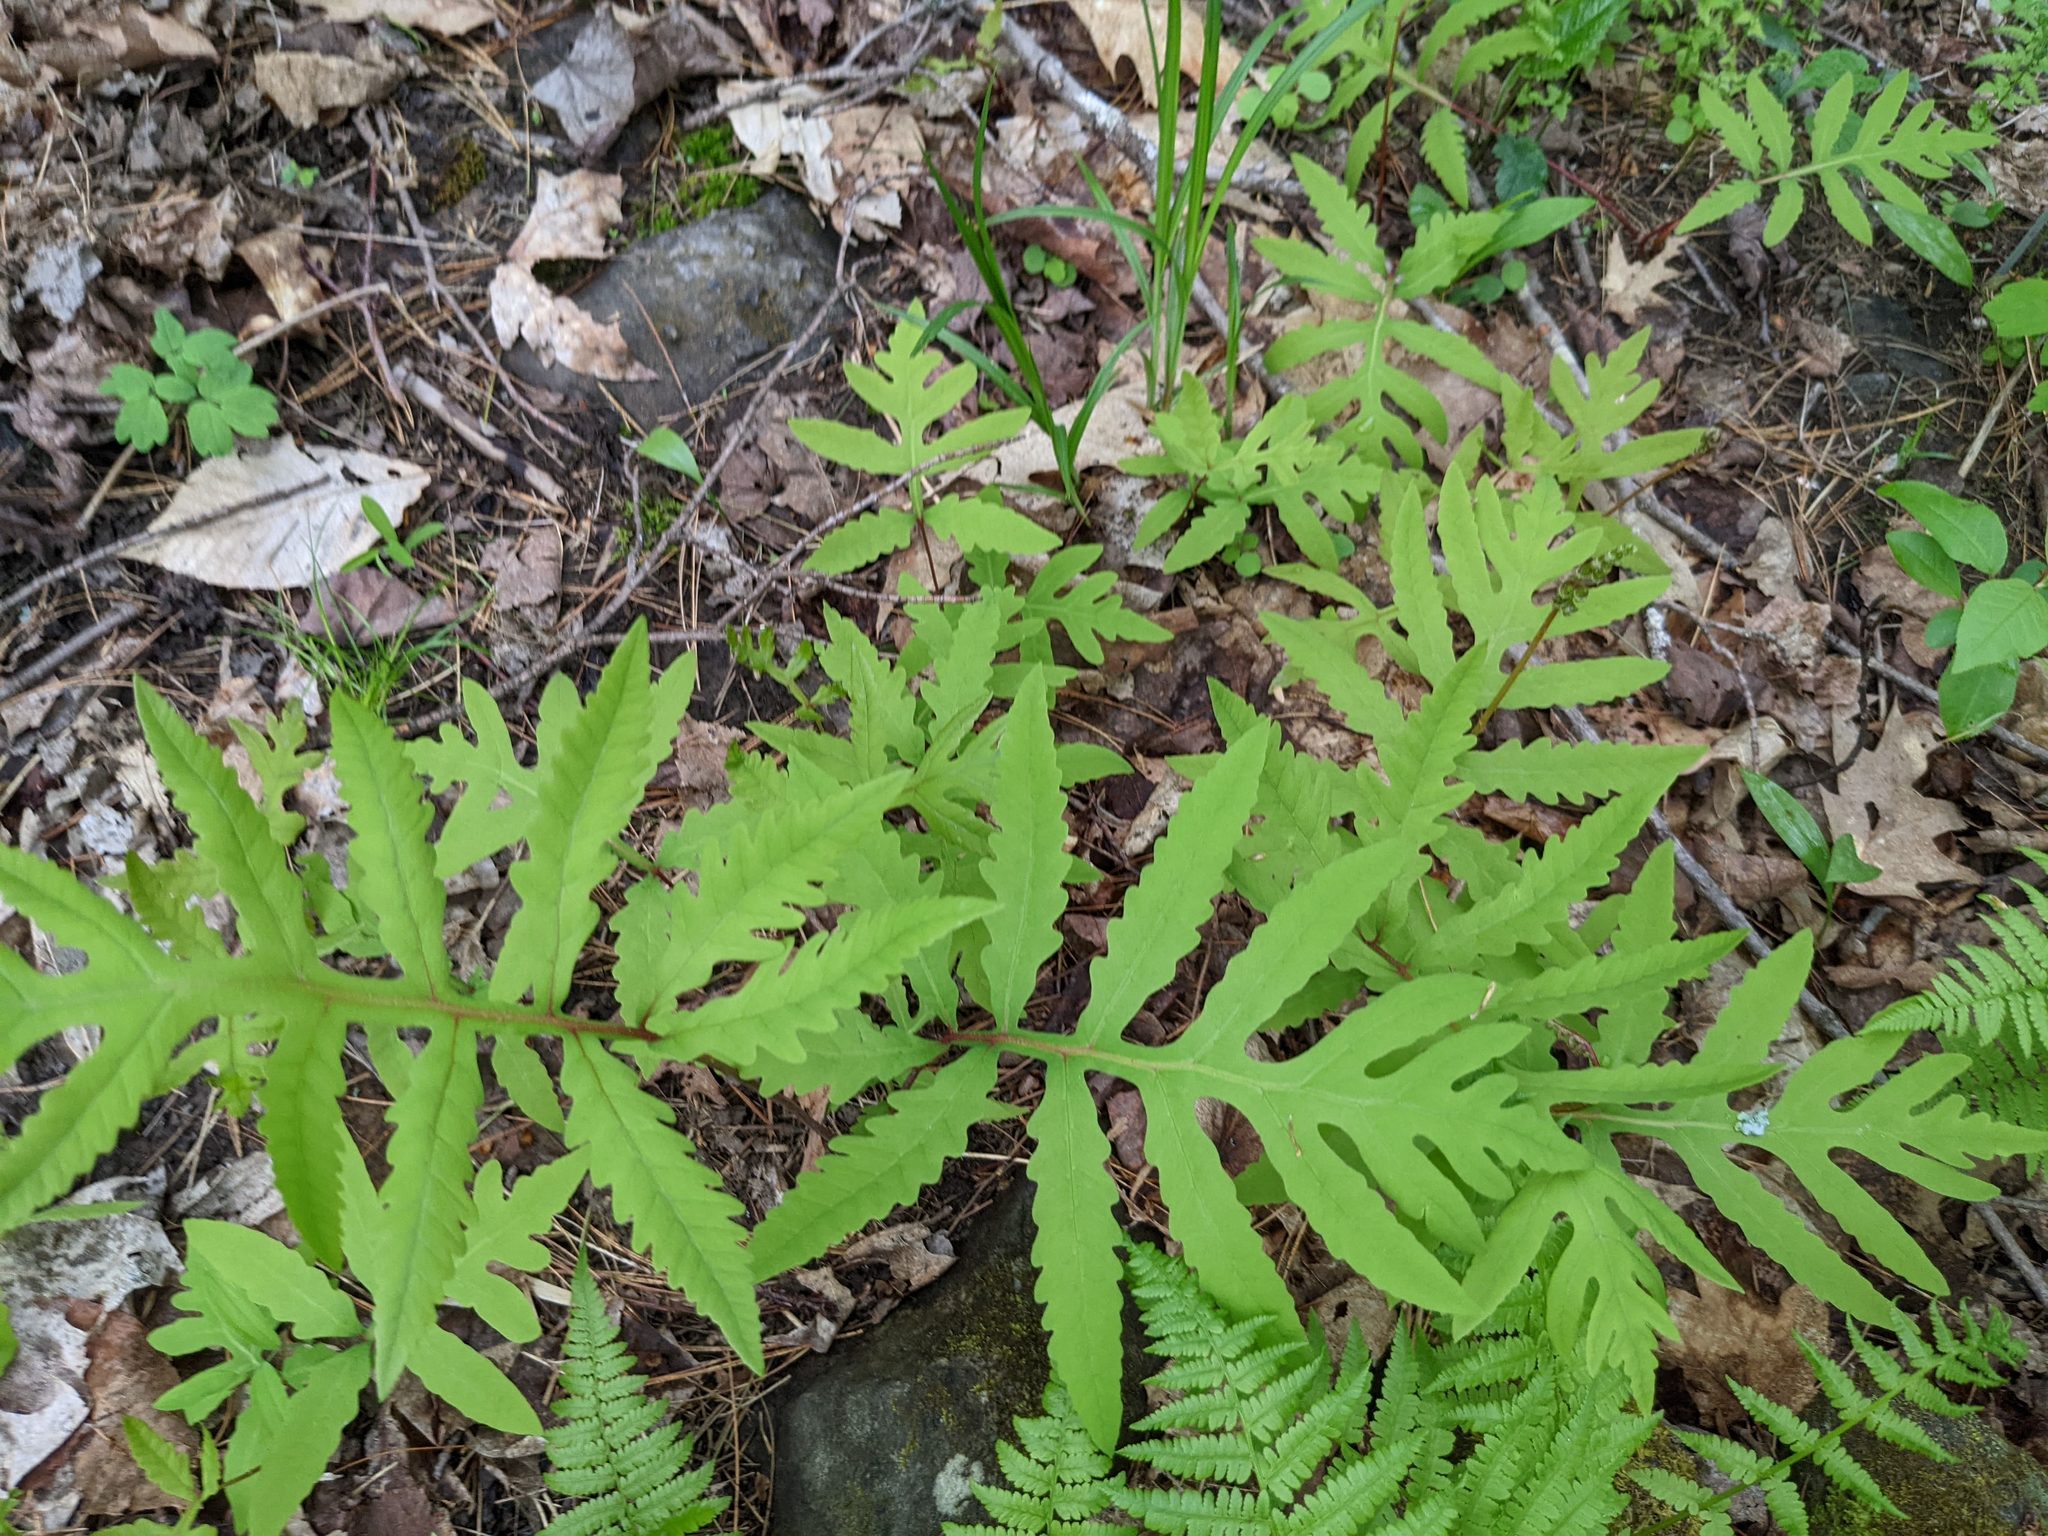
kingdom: Plantae
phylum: Tracheophyta
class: Polypodiopsida
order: Polypodiales
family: Onocleaceae
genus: Onoclea
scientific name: Onoclea sensibilis
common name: Sensitive fern
